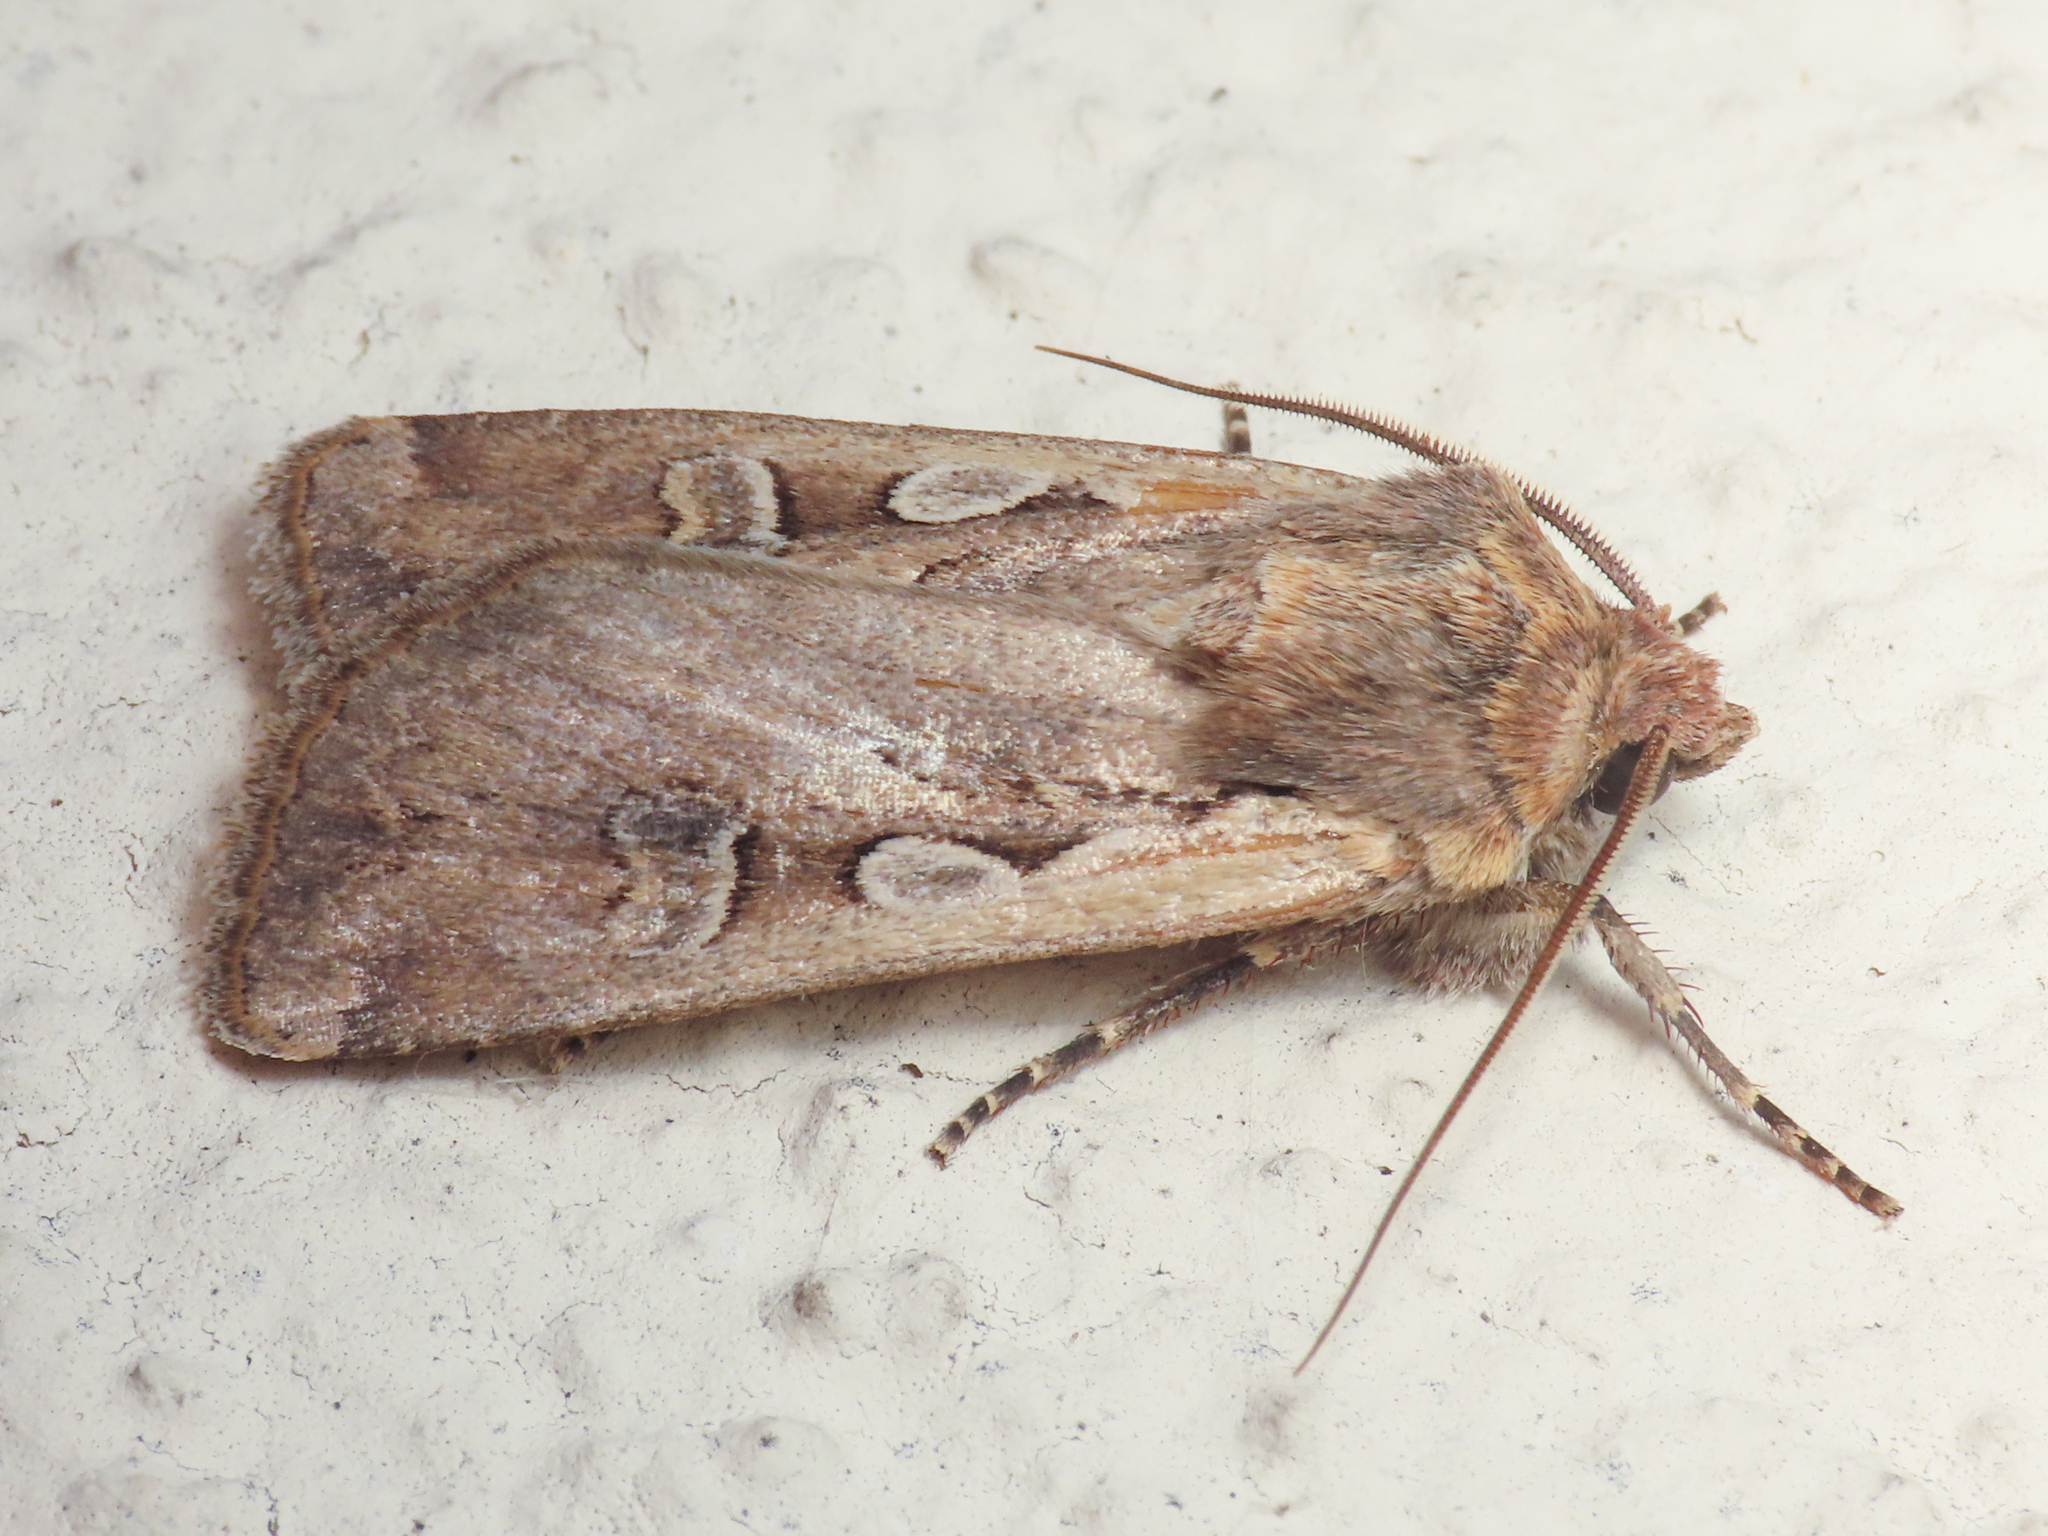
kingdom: Animalia
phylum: Arthropoda
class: Insecta
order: Lepidoptera
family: Noctuidae
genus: Euxoa
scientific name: Euxoa temera
